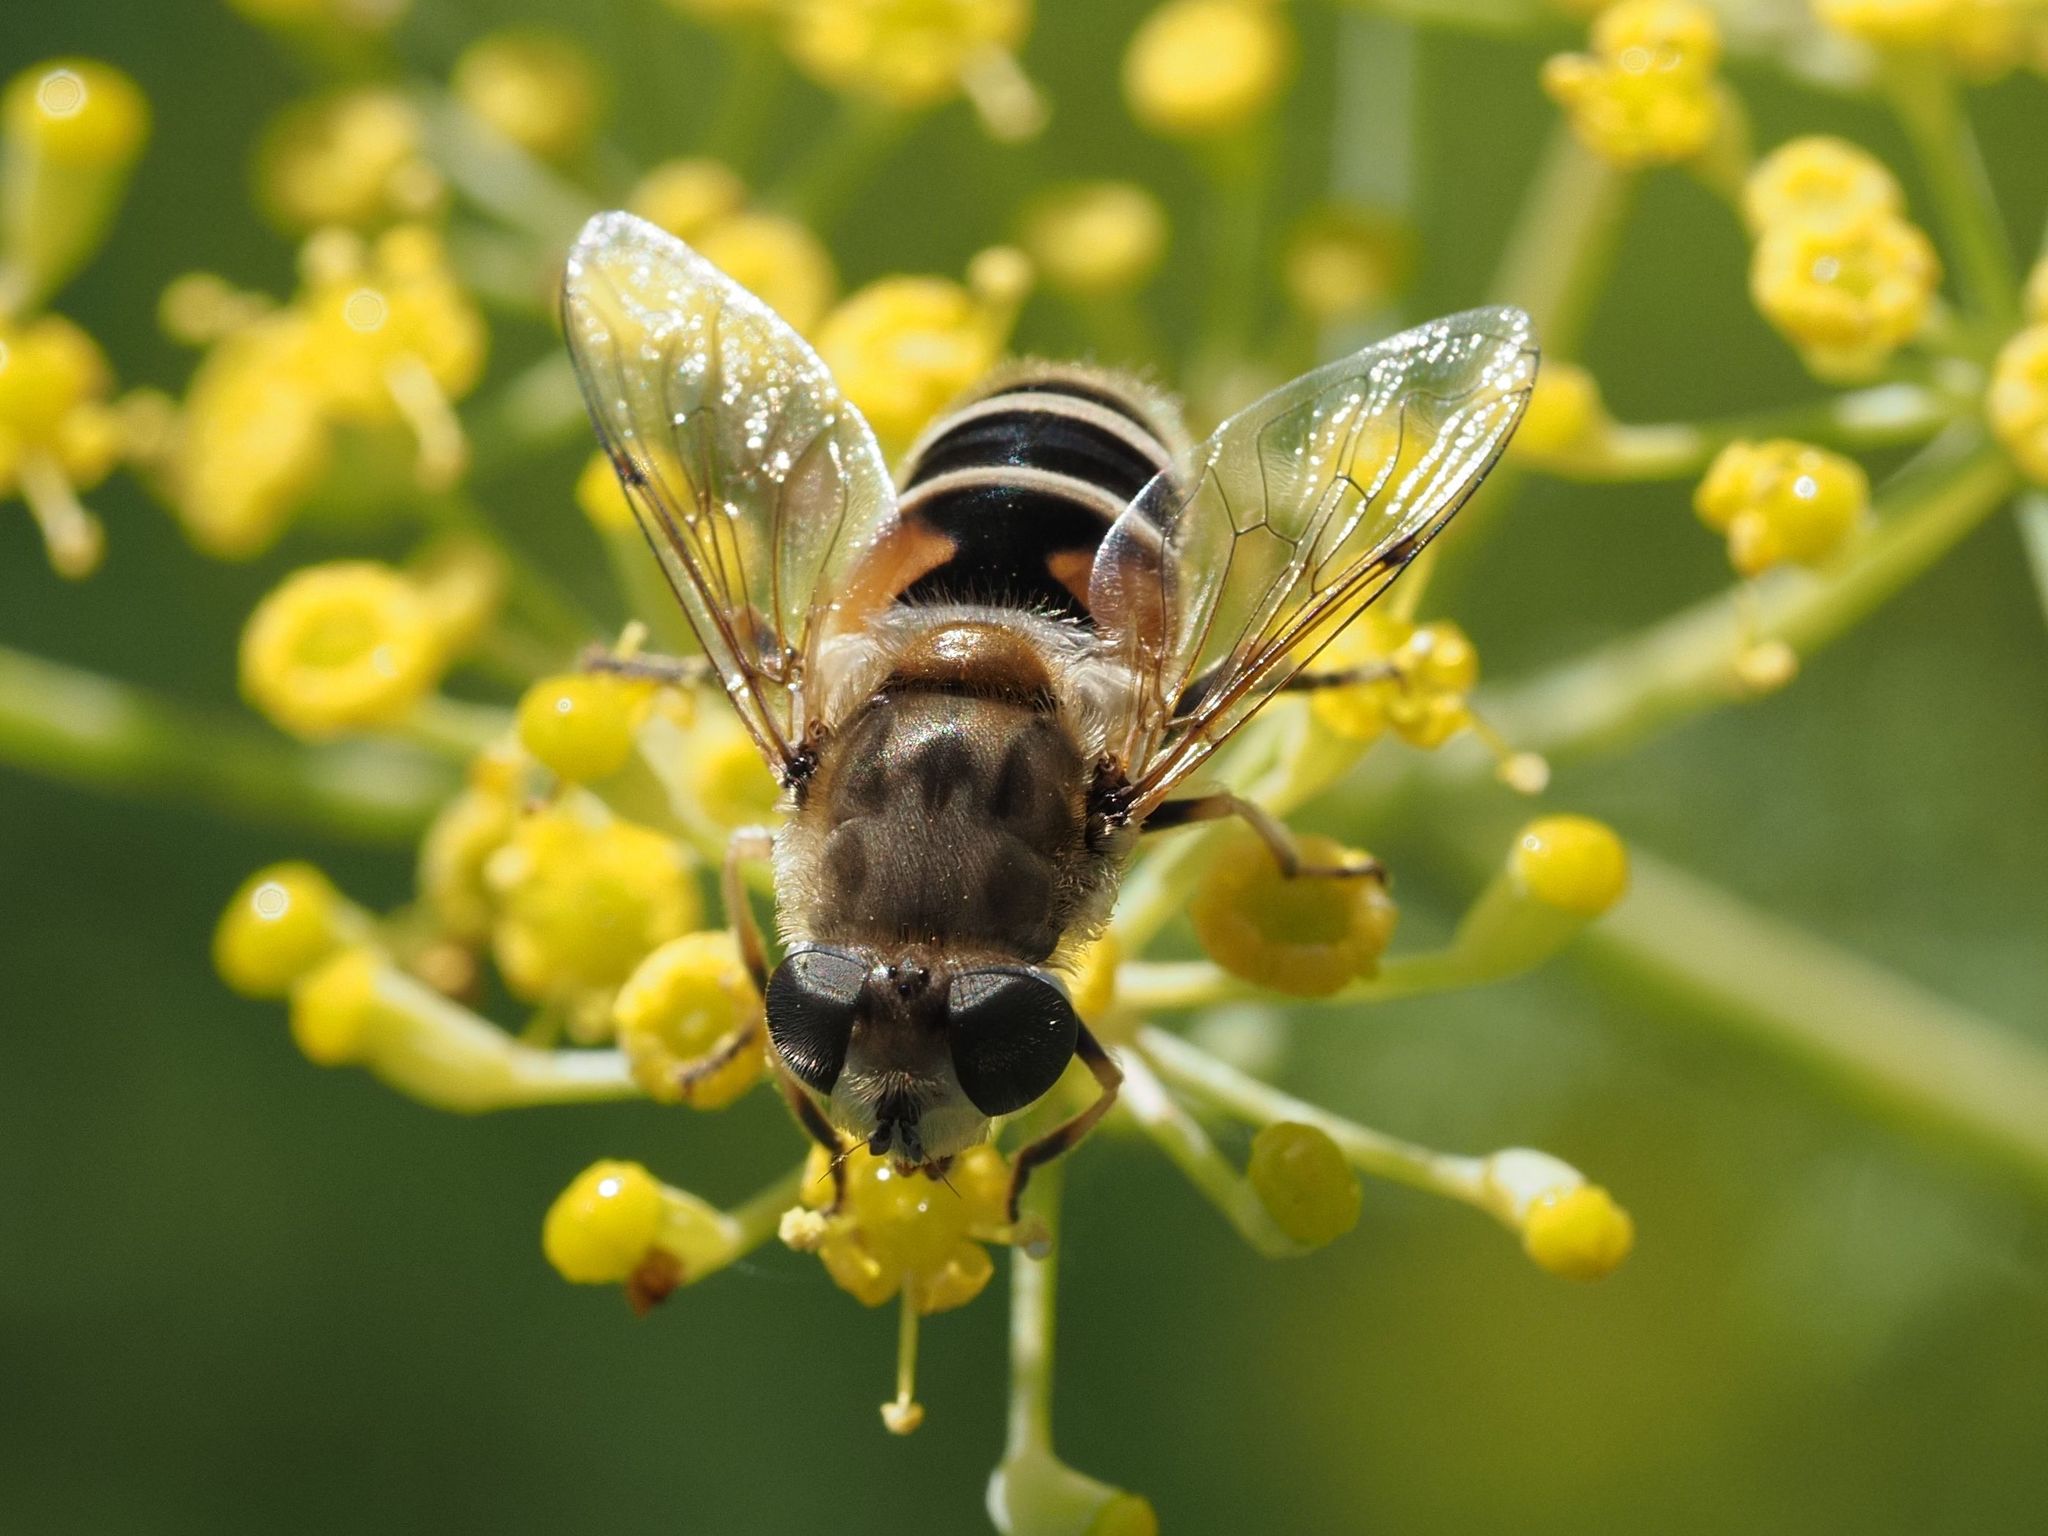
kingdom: Animalia
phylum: Arthropoda
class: Insecta
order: Diptera
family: Syrphidae
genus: Eristalis
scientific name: Eristalis arbustorum
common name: Hover fly
